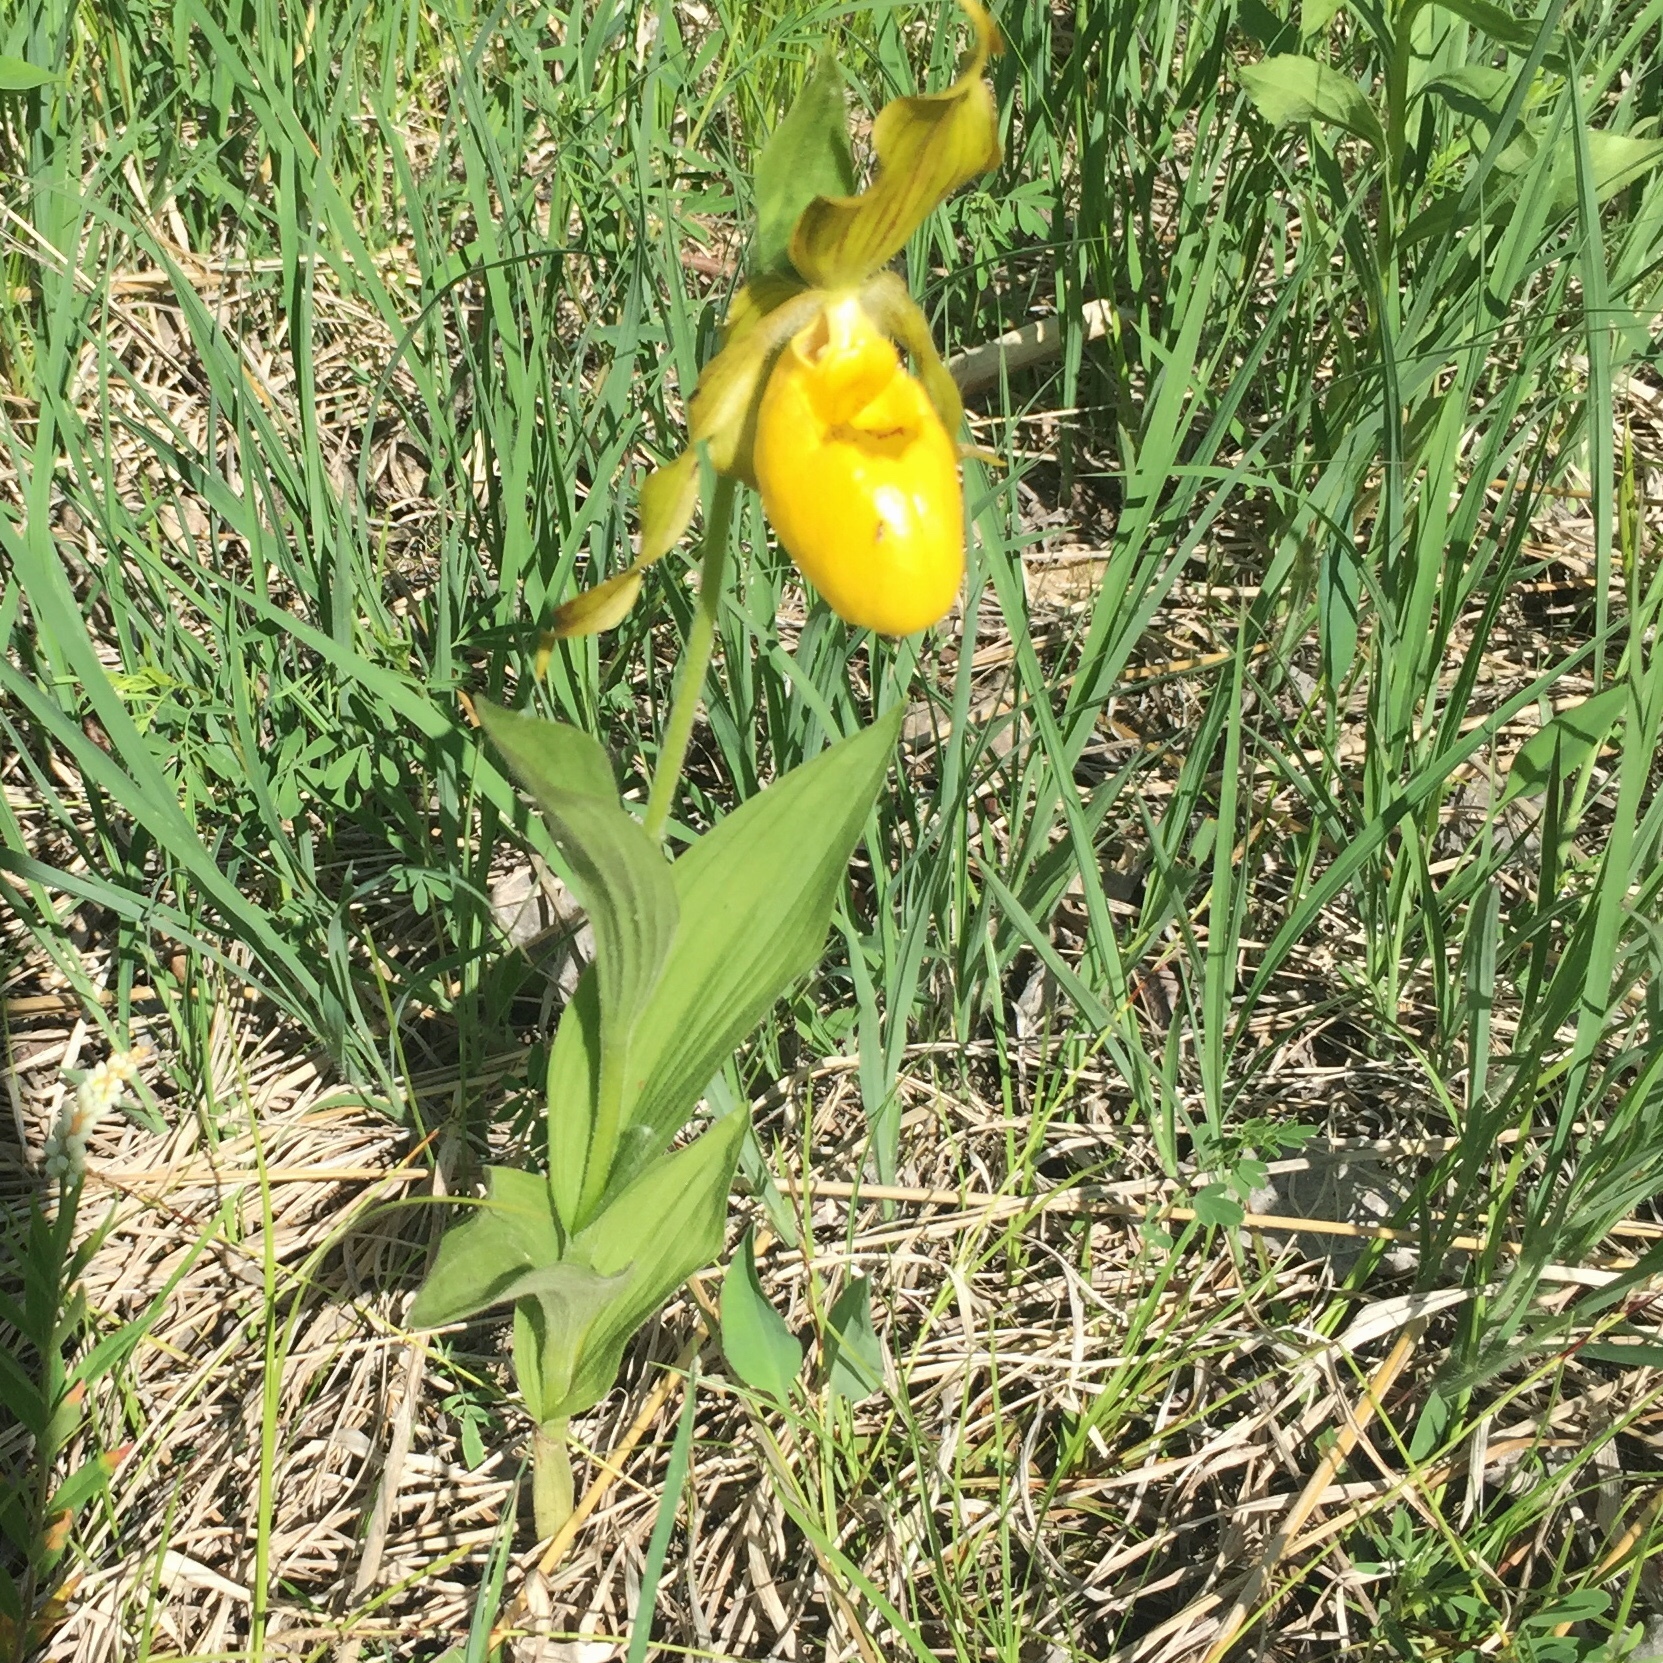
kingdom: Plantae
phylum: Tracheophyta
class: Liliopsida
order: Asparagales
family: Orchidaceae
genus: Cypripedium
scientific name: Cypripedium parviflorum
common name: American yellow lady's-slipper
